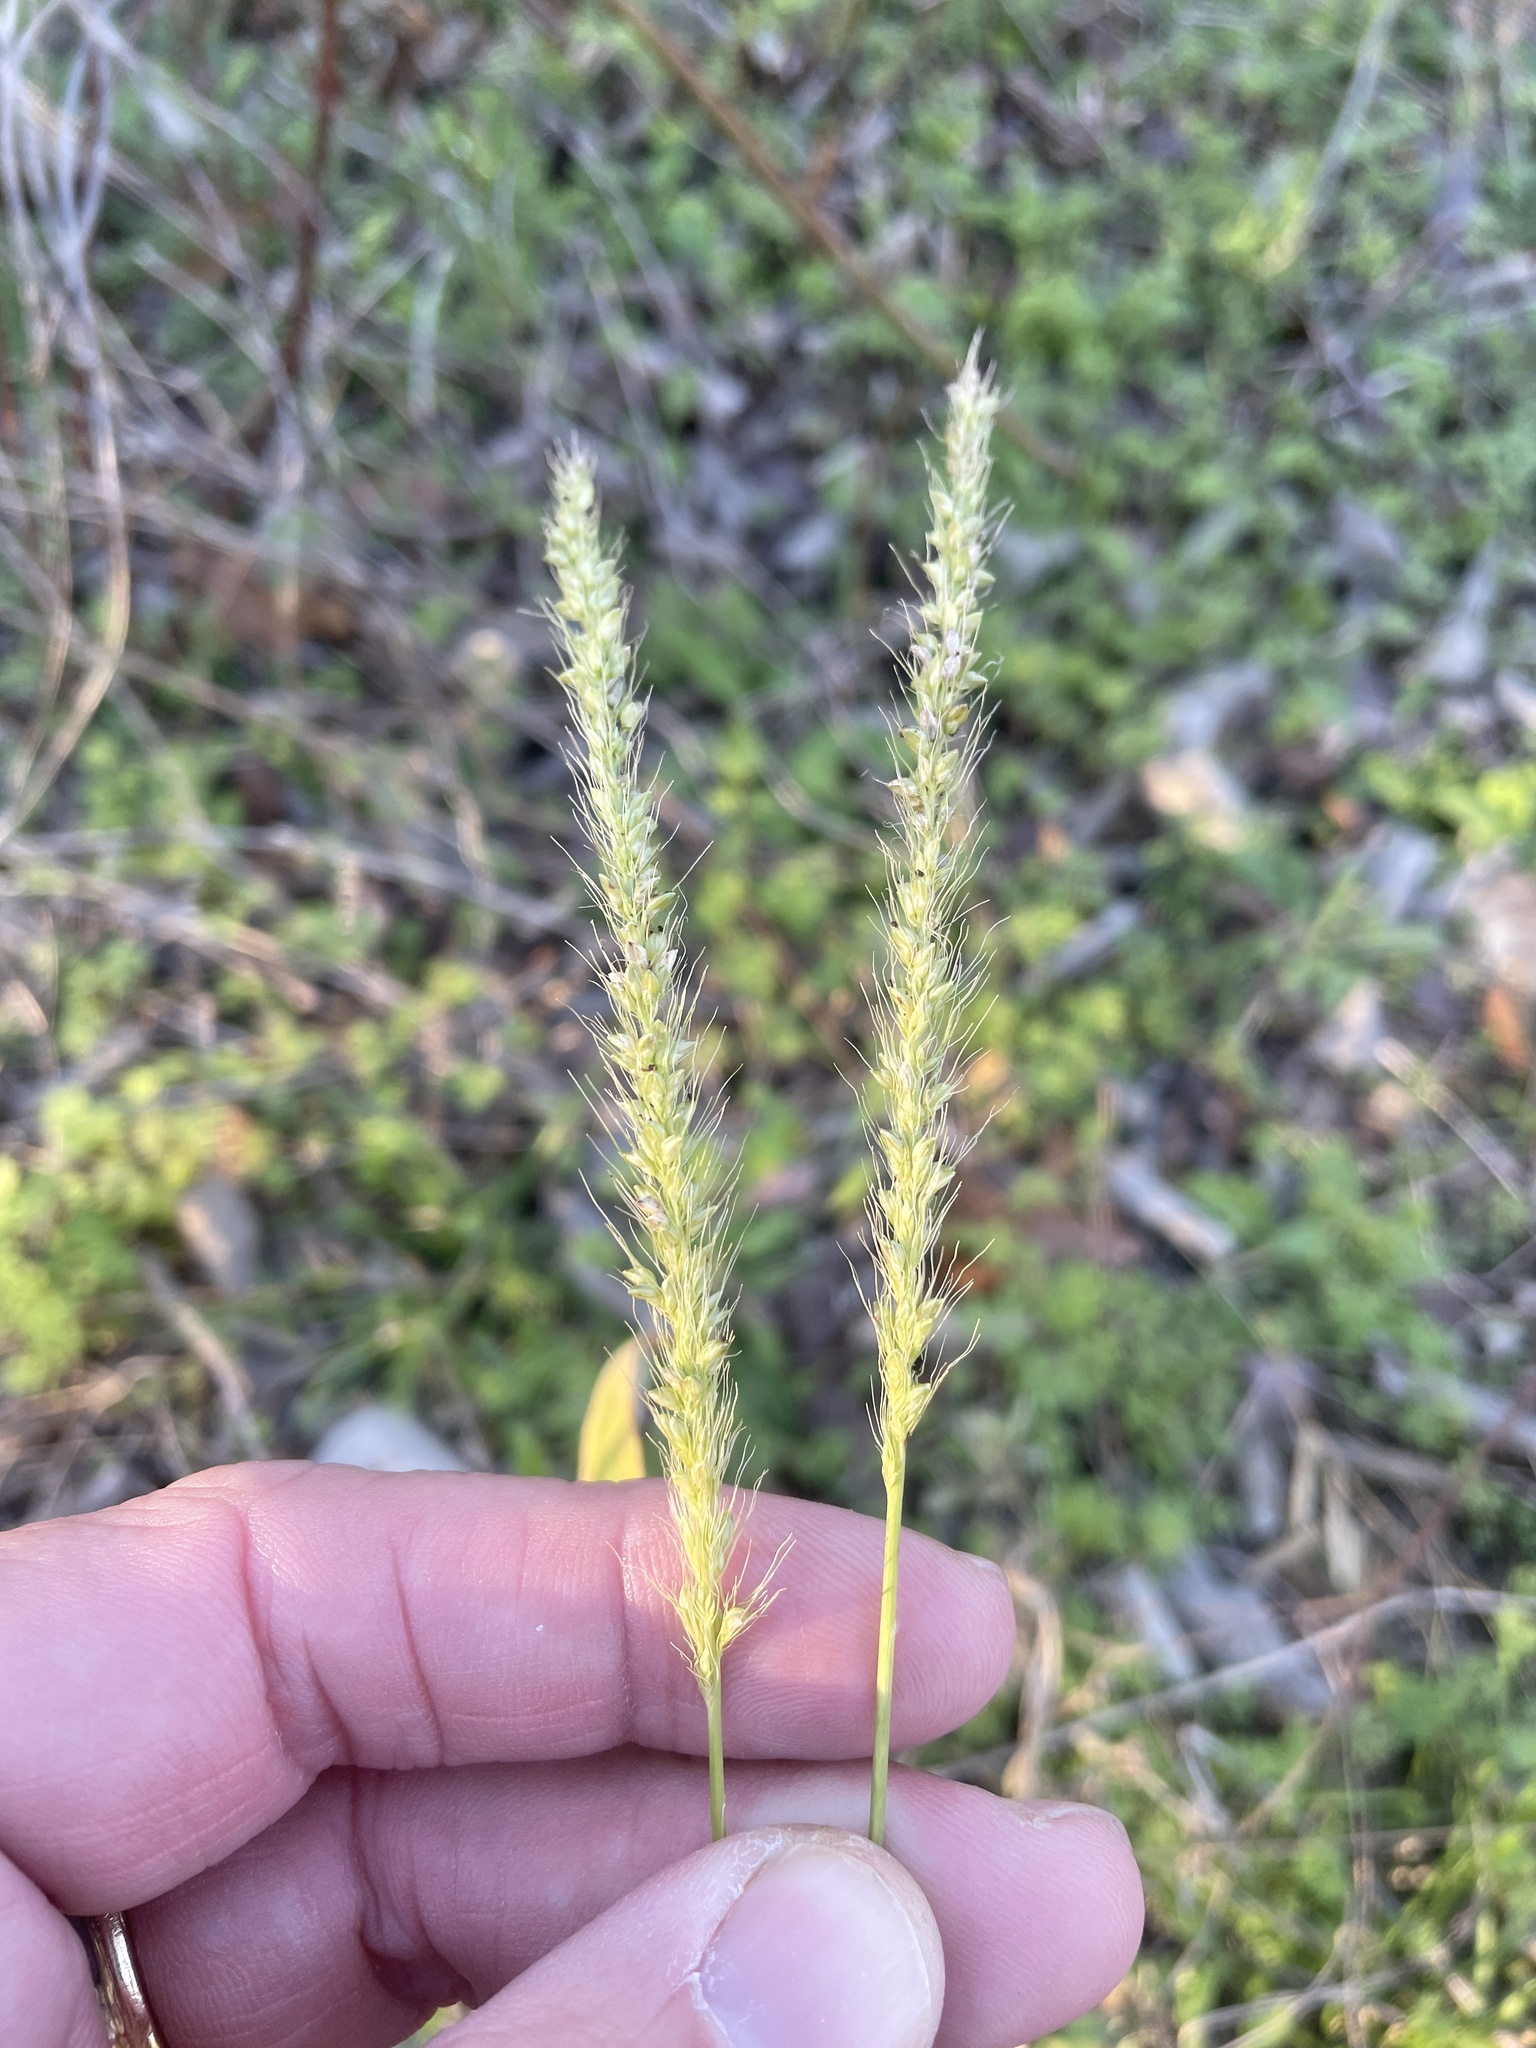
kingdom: Plantae
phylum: Tracheophyta
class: Liliopsida
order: Poales
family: Poaceae
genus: Setaria
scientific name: Setaria scheelei
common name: Southwestern bristle grass
